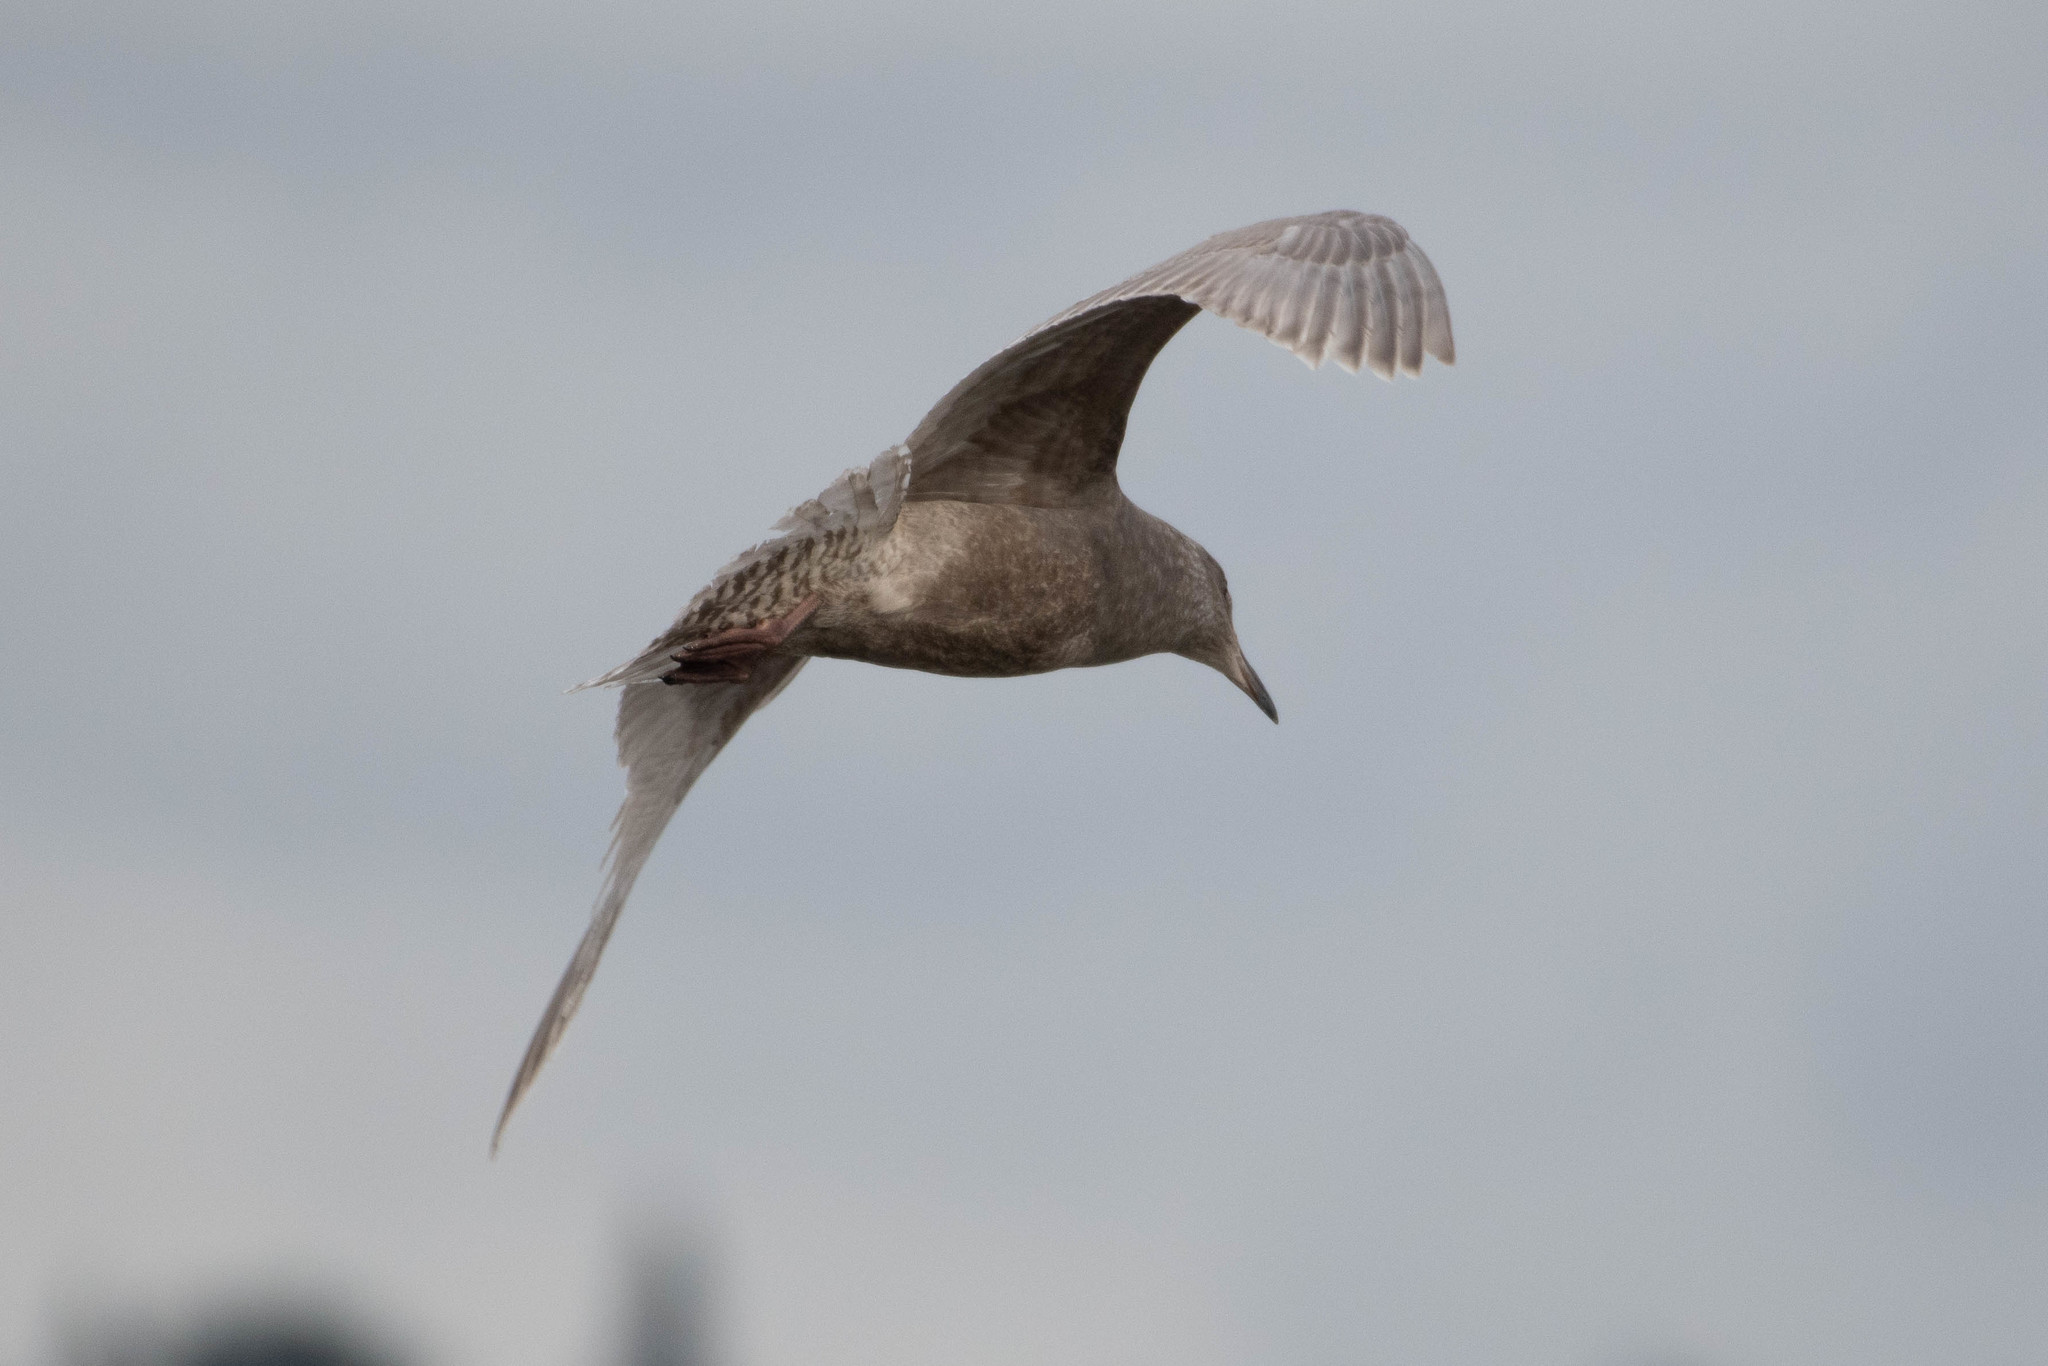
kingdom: Animalia
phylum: Chordata
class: Aves
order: Charadriiformes
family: Laridae
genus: Larus
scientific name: Larus glaucescens
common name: Glaucous-winged gull
